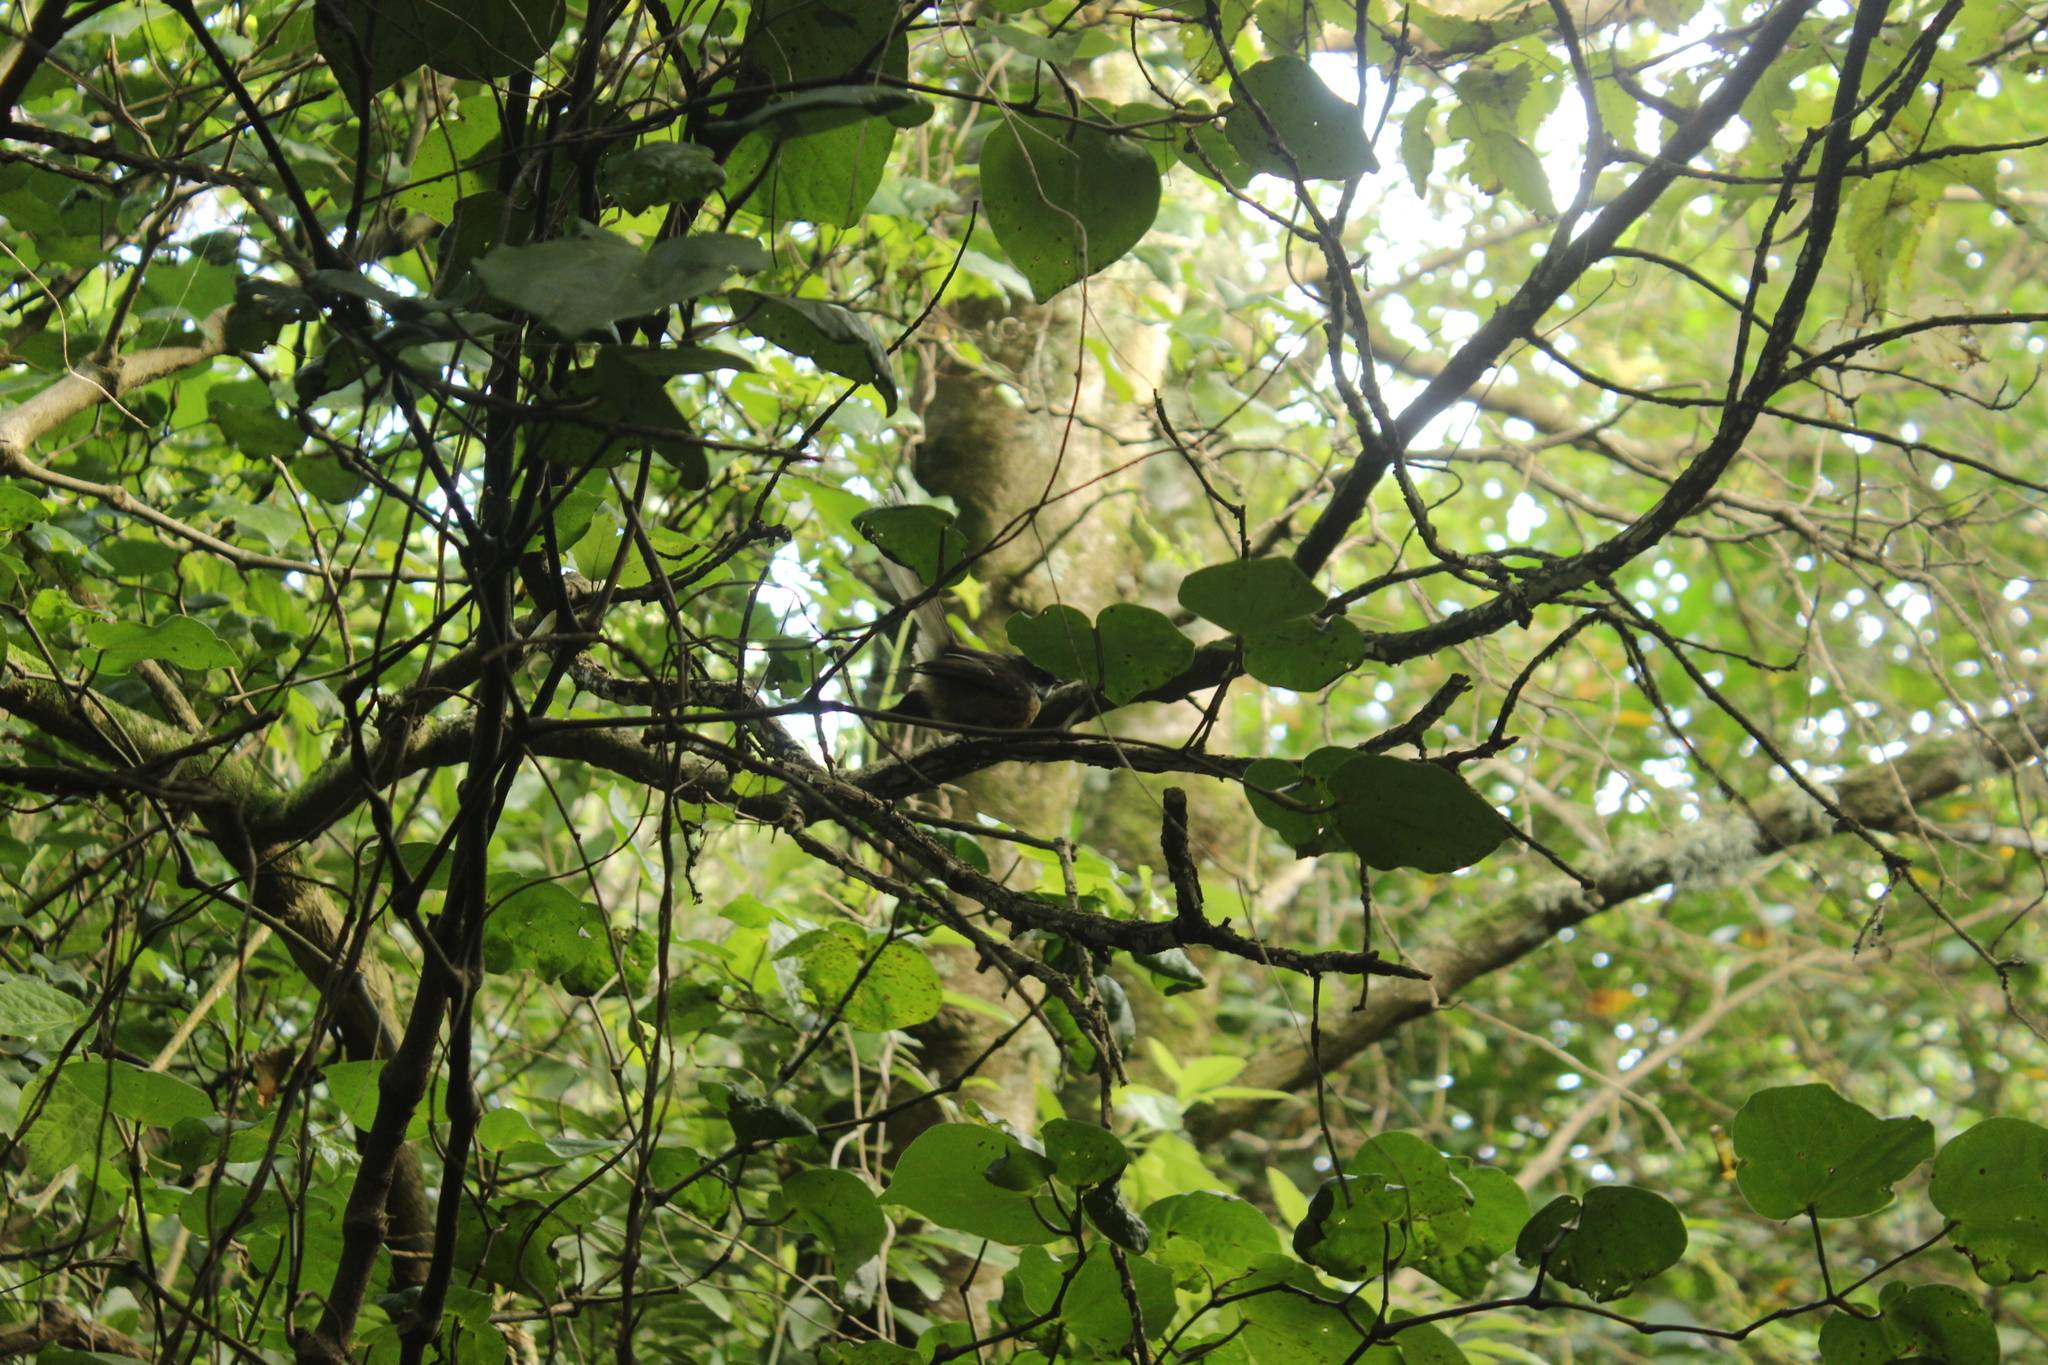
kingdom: Animalia
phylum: Chordata
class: Aves
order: Passeriformes
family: Rhipiduridae
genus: Rhipidura
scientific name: Rhipidura fuliginosa
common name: New zealand fantail
